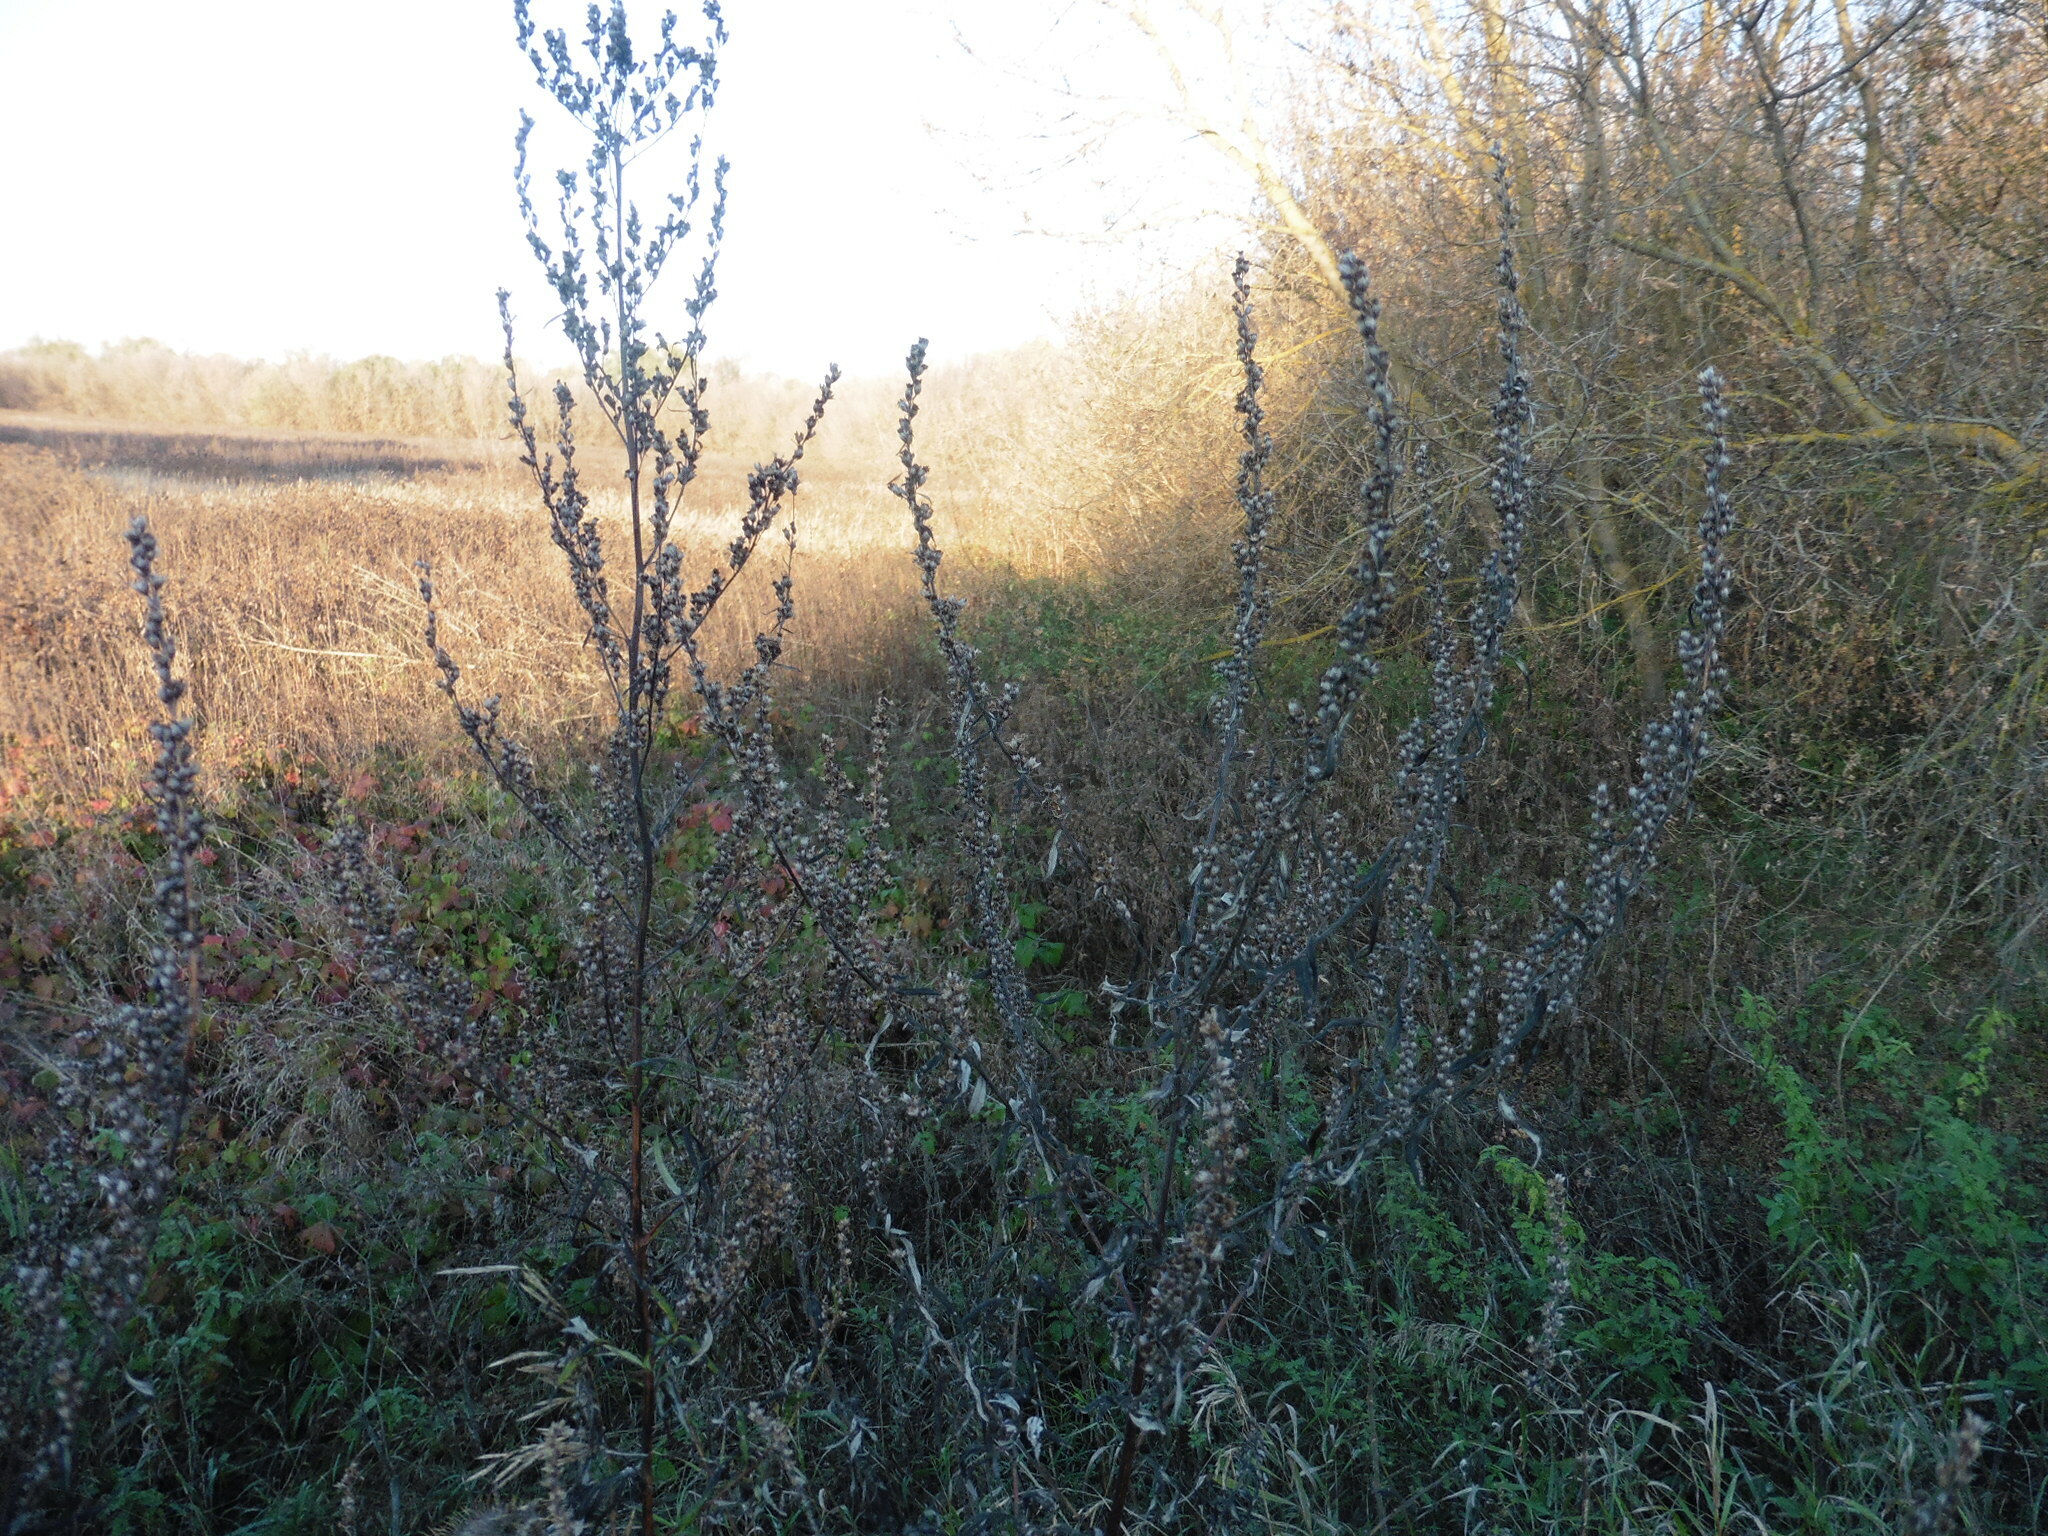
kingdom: Plantae
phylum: Tracheophyta
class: Magnoliopsida
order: Asterales
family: Asteraceae
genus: Artemisia
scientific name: Artemisia vulgaris
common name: Mugwort
